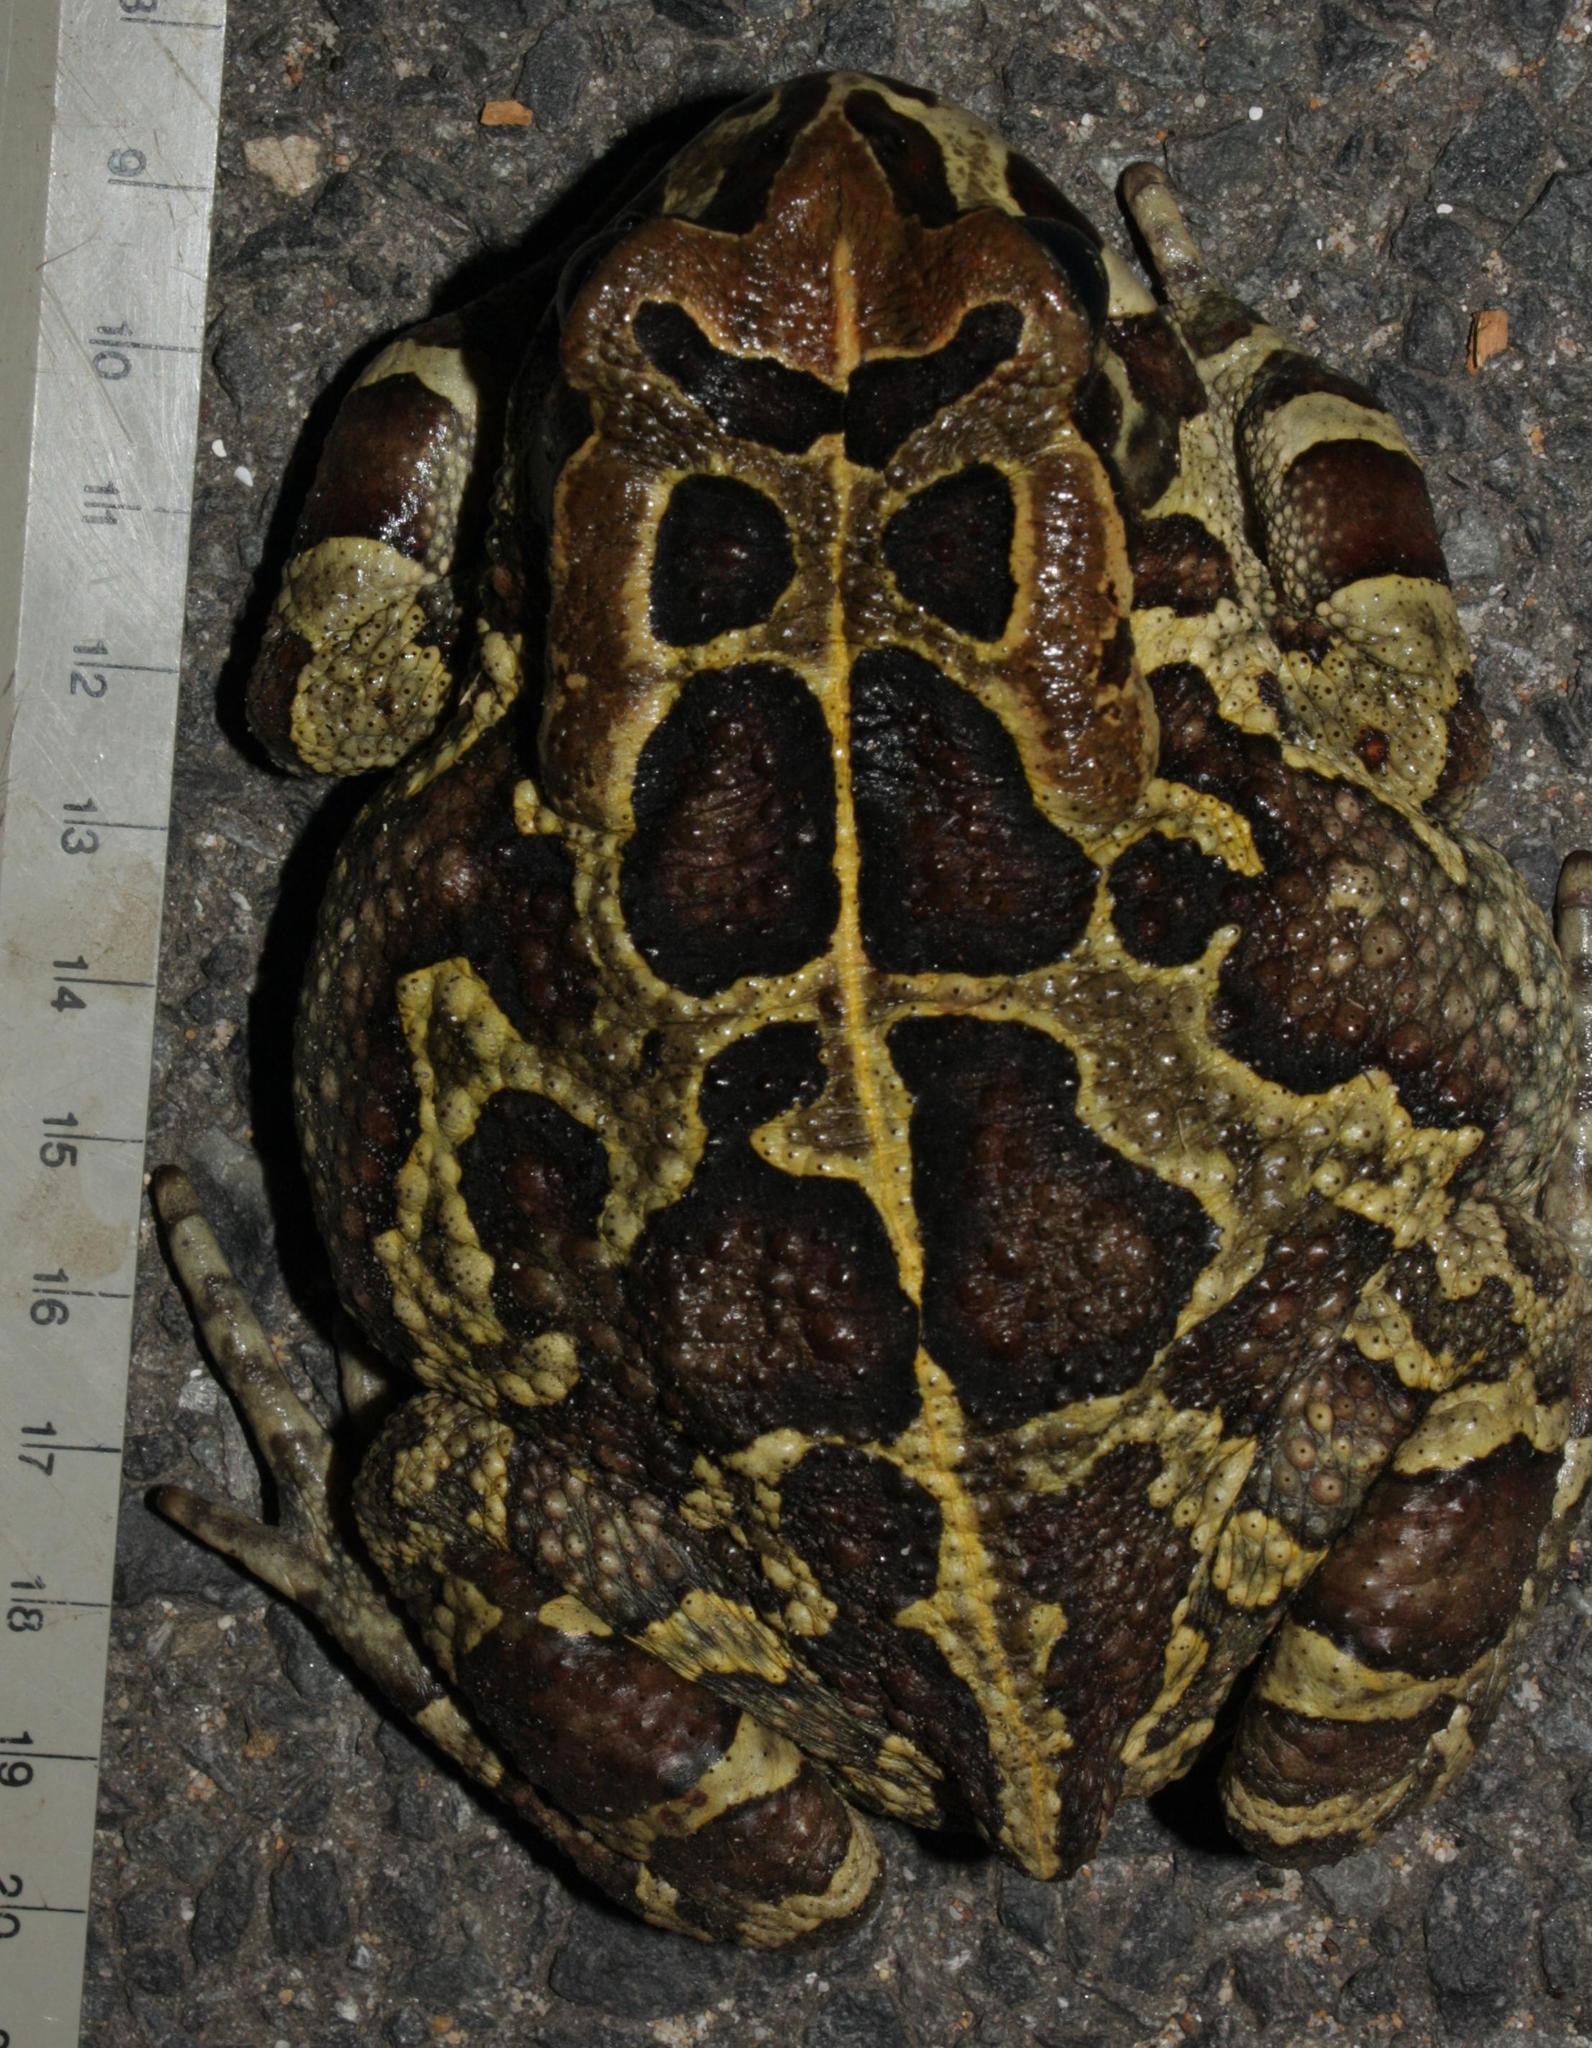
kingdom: Animalia
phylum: Chordata
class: Amphibia
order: Anura
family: Bufonidae
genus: Sclerophrys
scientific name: Sclerophrys pantherina
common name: Panther toad
